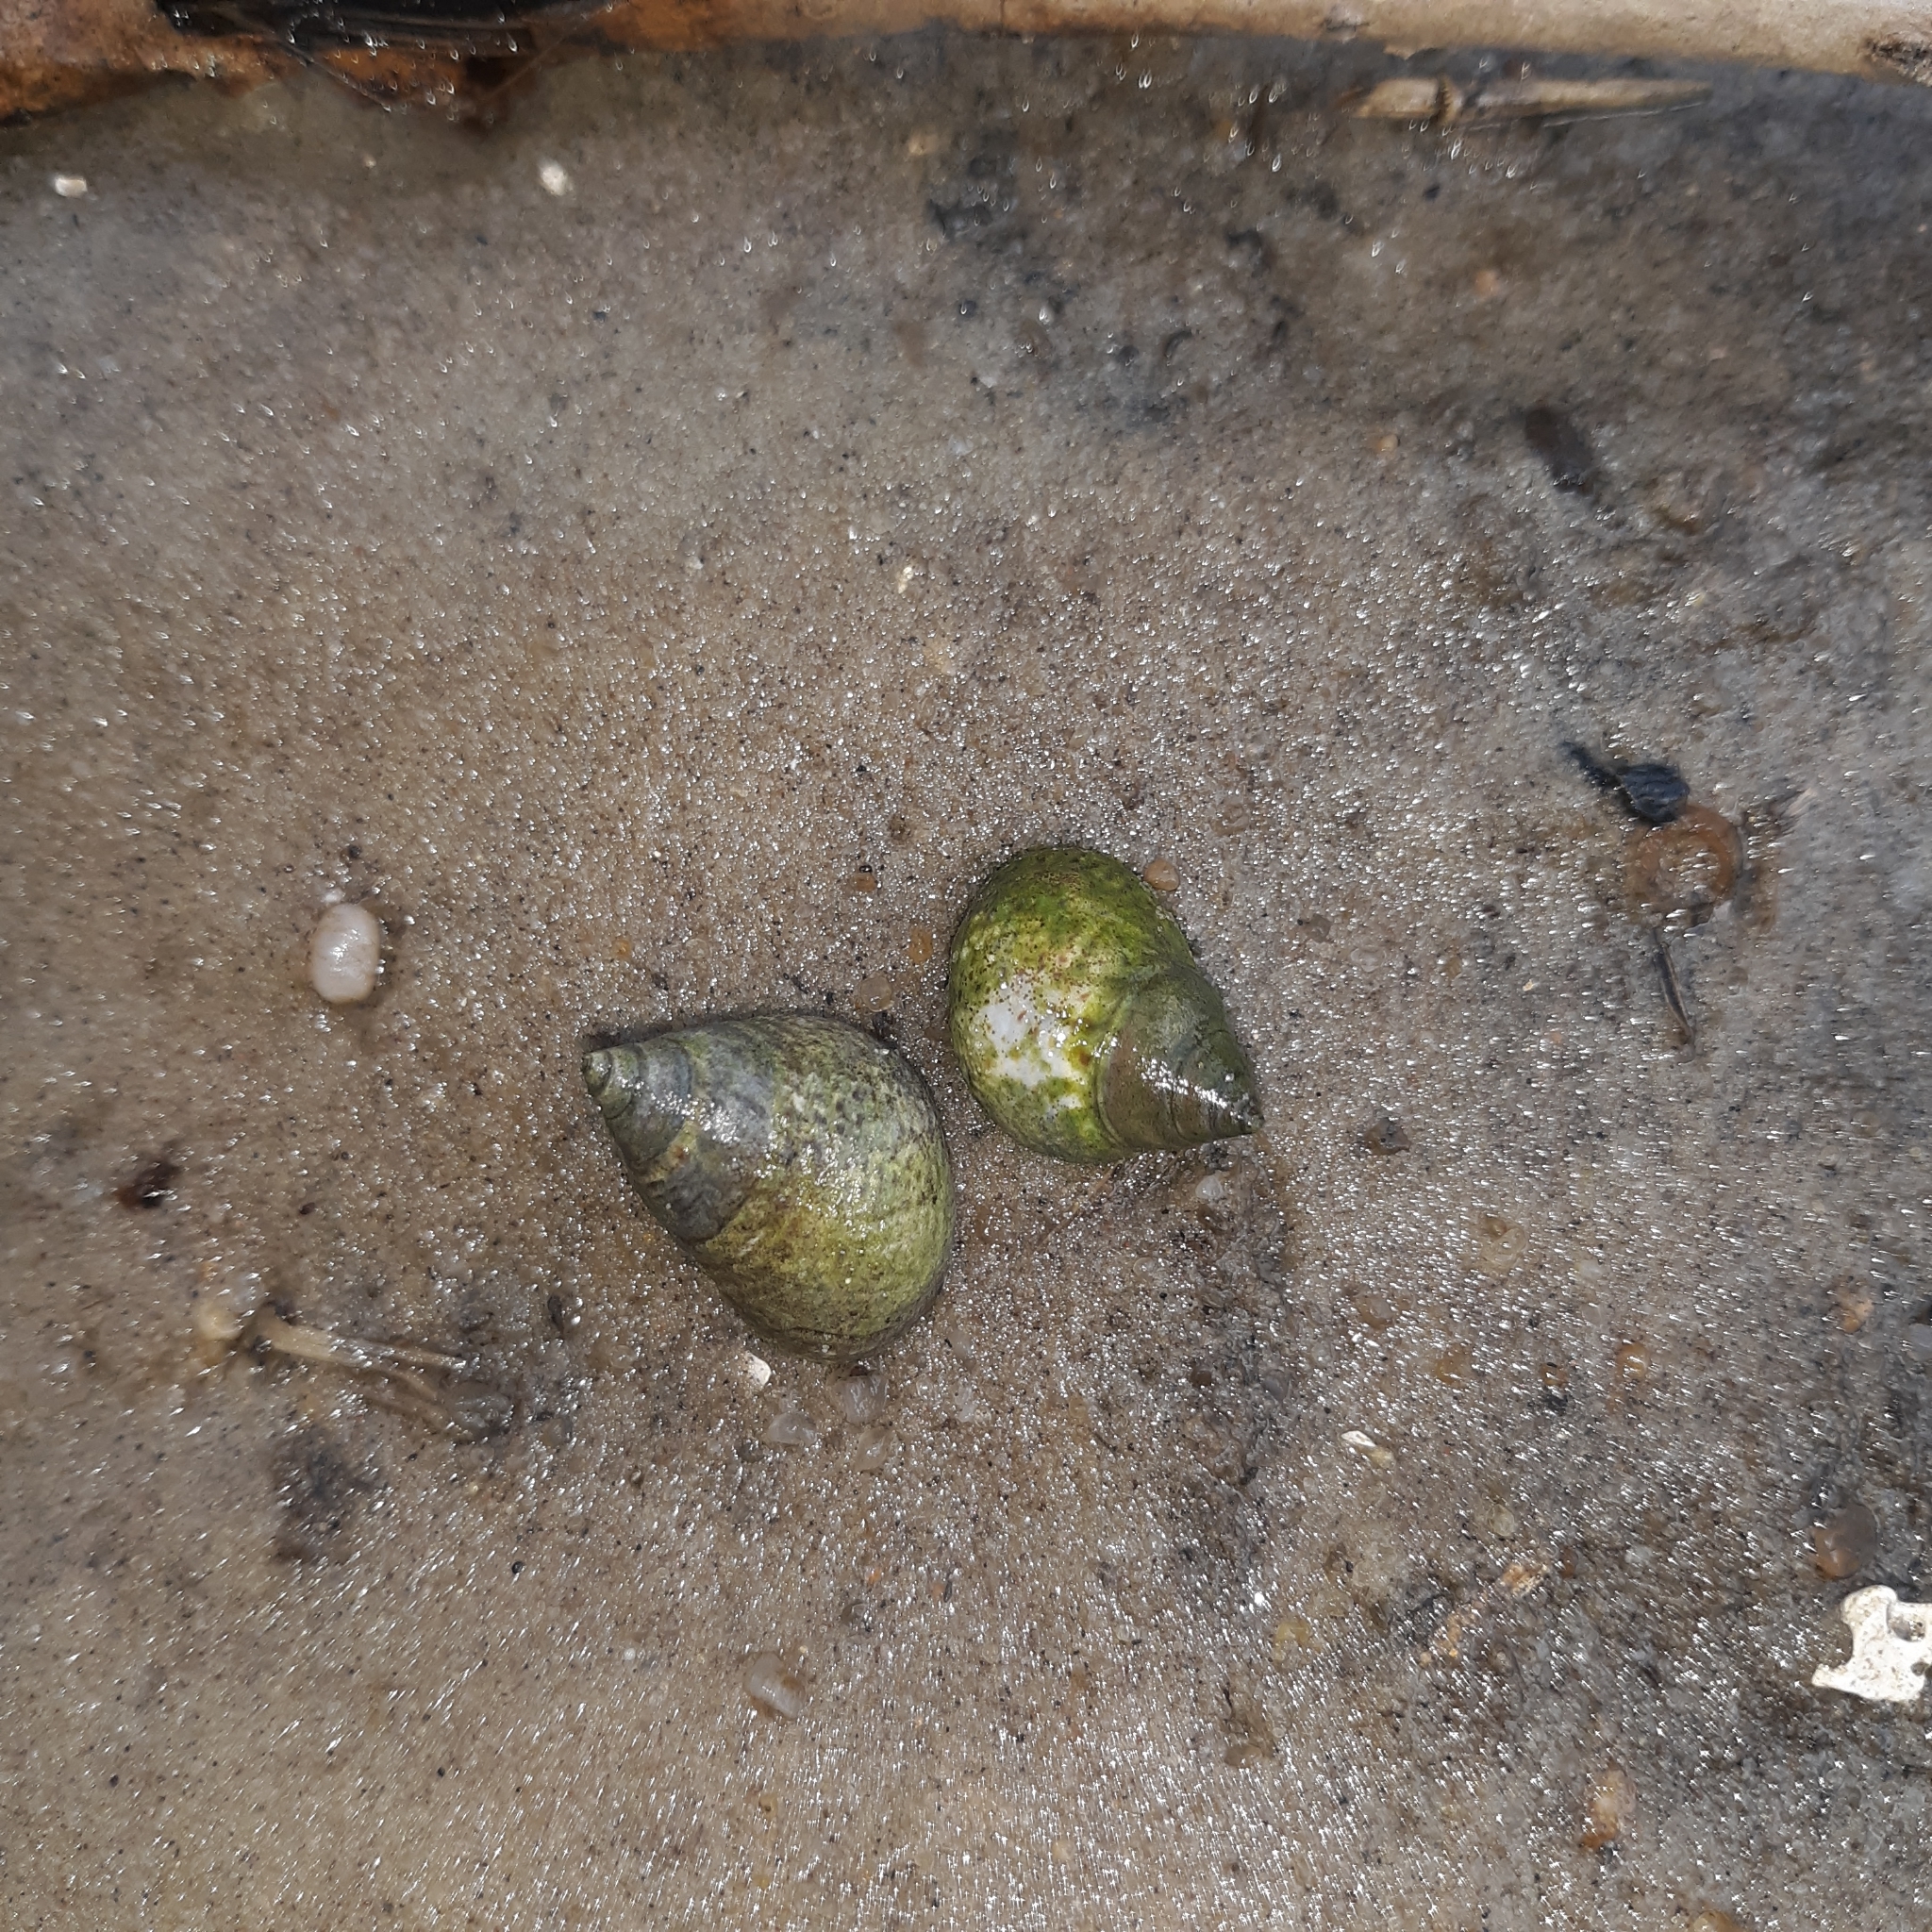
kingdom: Animalia
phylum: Mollusca
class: Gastropoda
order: Littorinimorpha
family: Littorinidae
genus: Littoraria
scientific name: Littoraria irrorata
